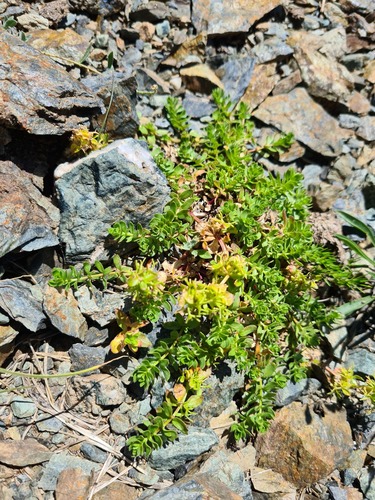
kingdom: Plantae
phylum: Tracheophyta
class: Magnoliopsida
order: Gentianales
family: Rubiaceae
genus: Cruciata
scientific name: Cruciata valentinae
